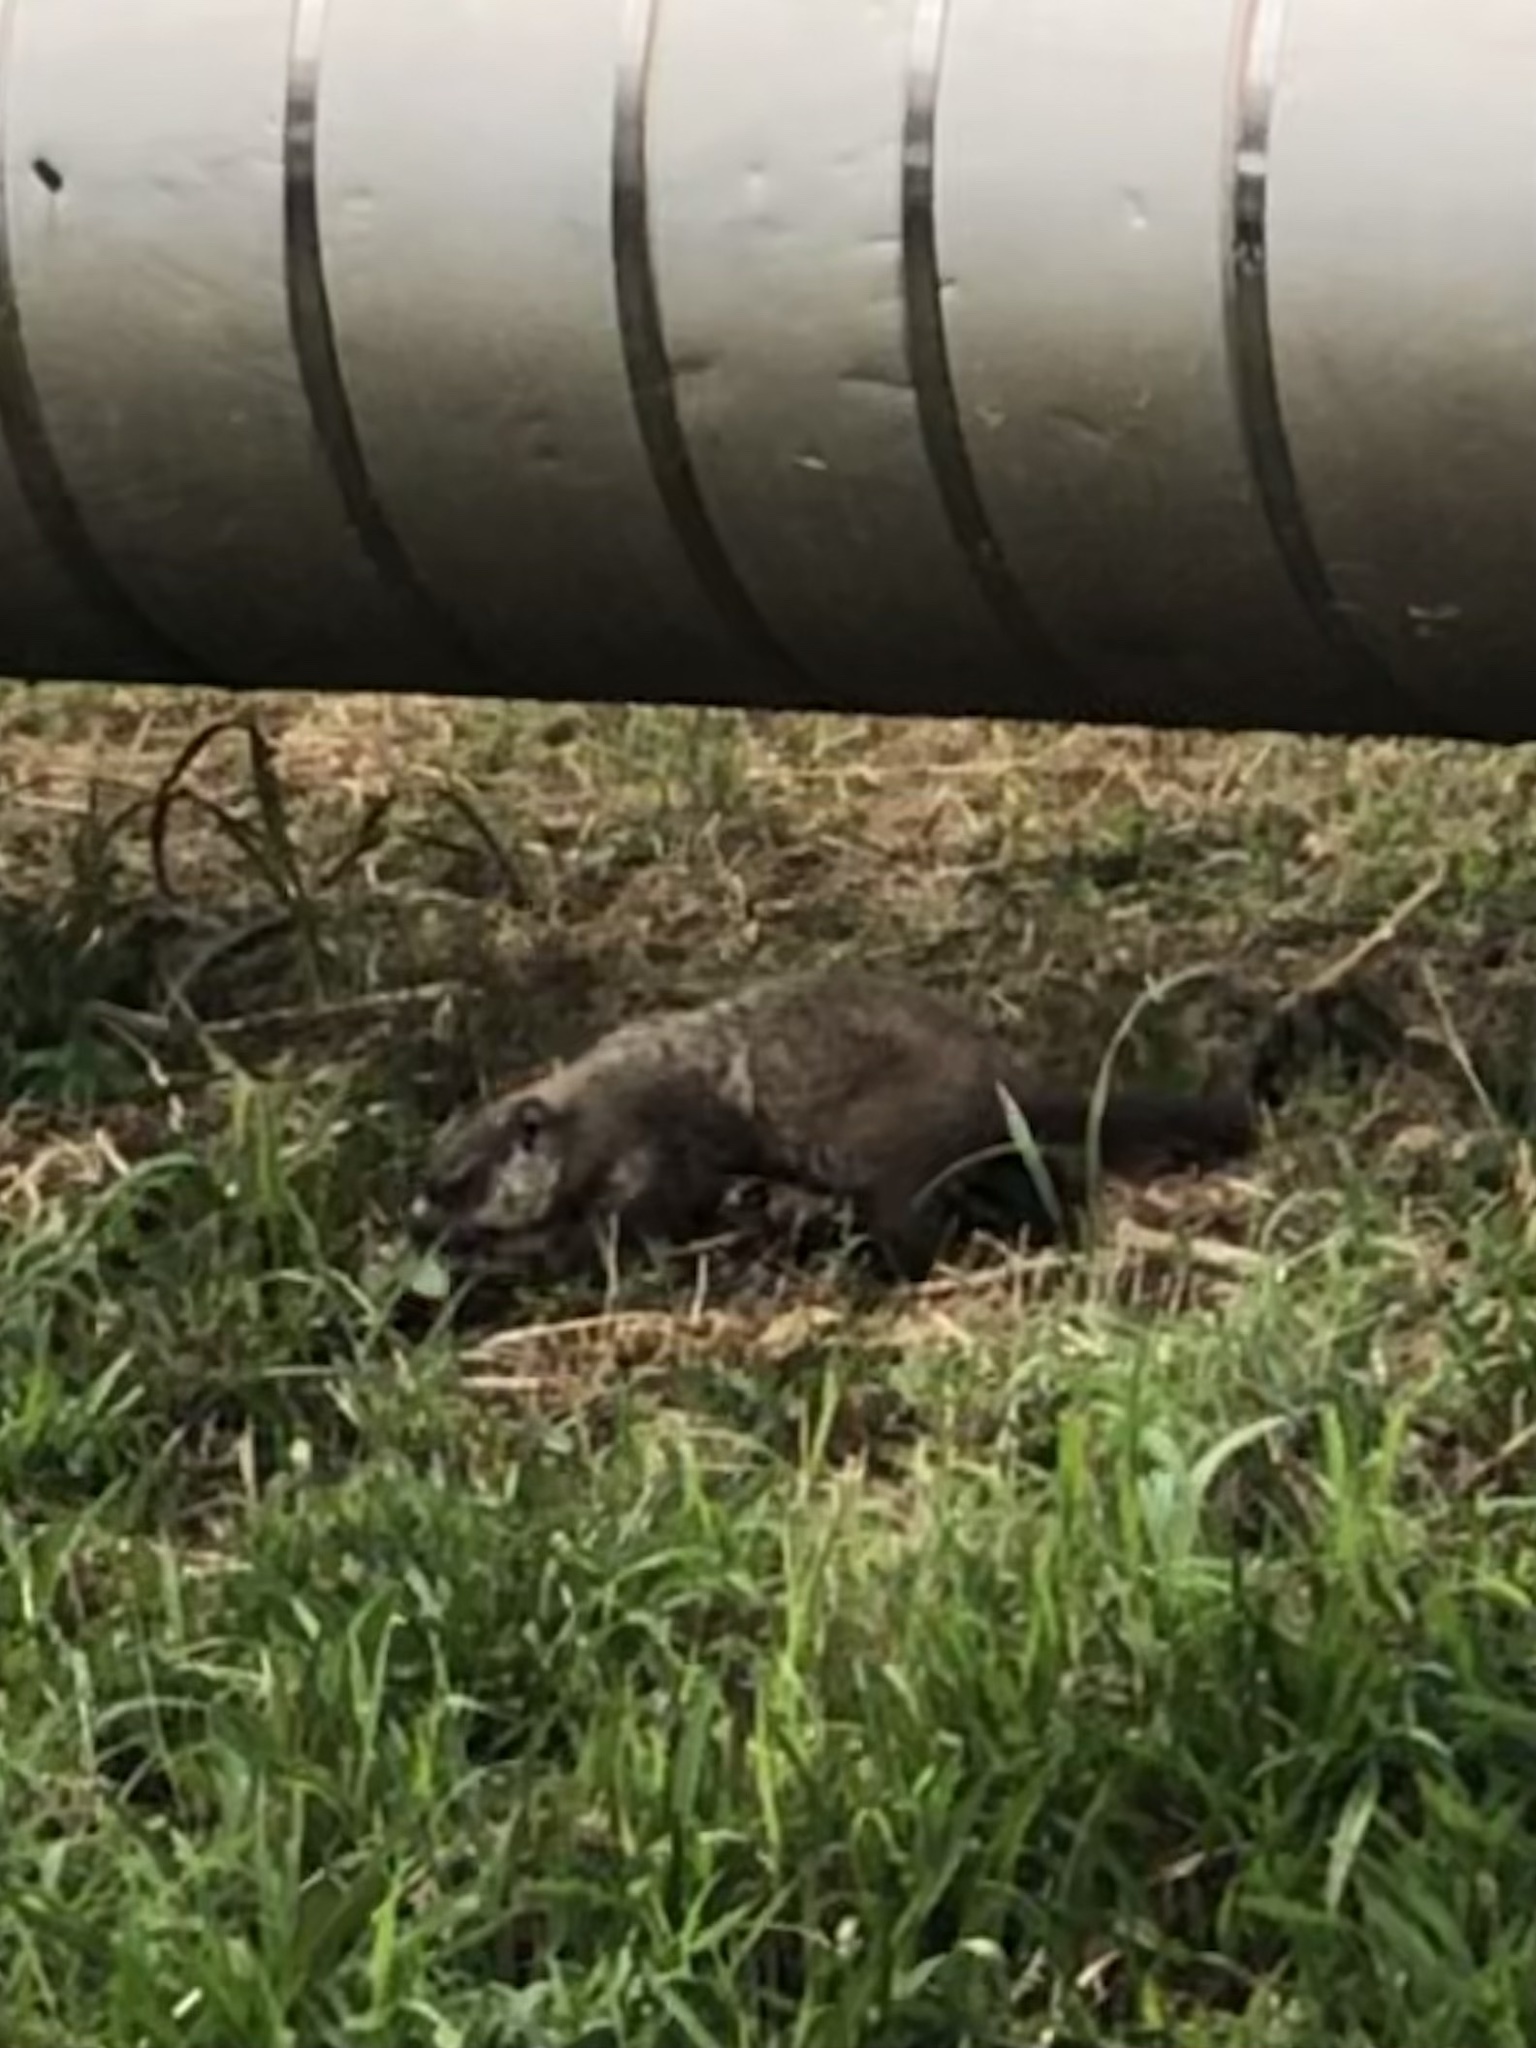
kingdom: Animalia
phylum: Chordata
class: Mammalia
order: Rodentia
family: Sciuridae
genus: Marmota
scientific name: Marmota monax
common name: Groundhog
